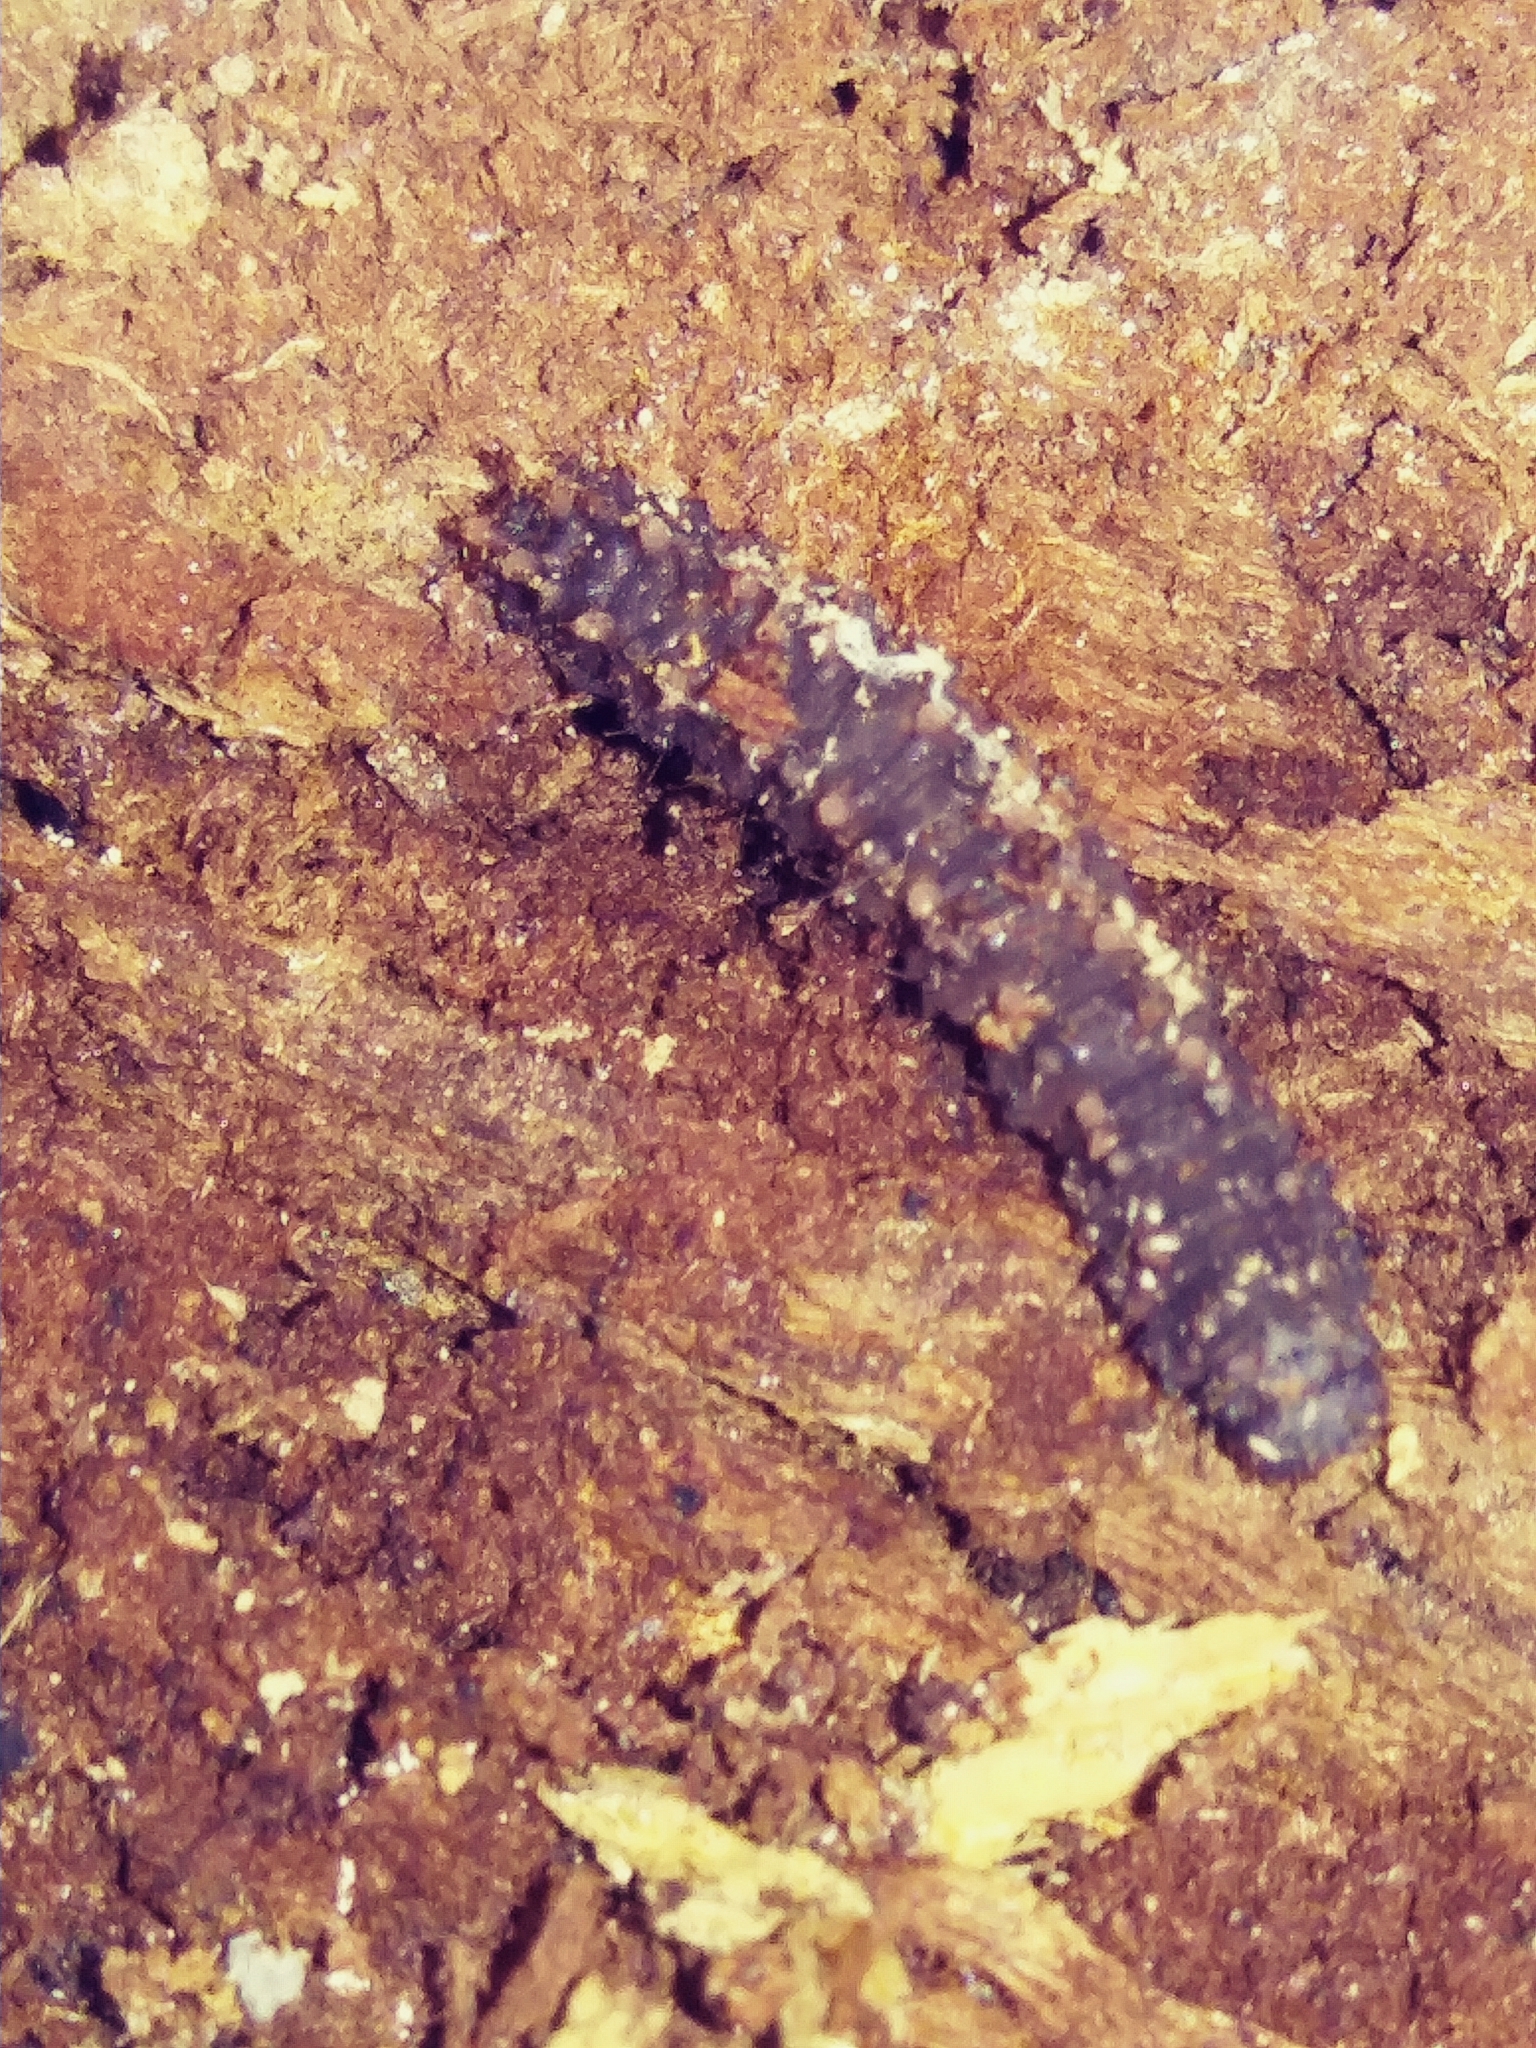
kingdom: Animalia
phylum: Arthropoda
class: Insecta
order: Lepidoptera
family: Erebidae
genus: Idia
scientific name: Idia lubricalis
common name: Twin-striped tabby
